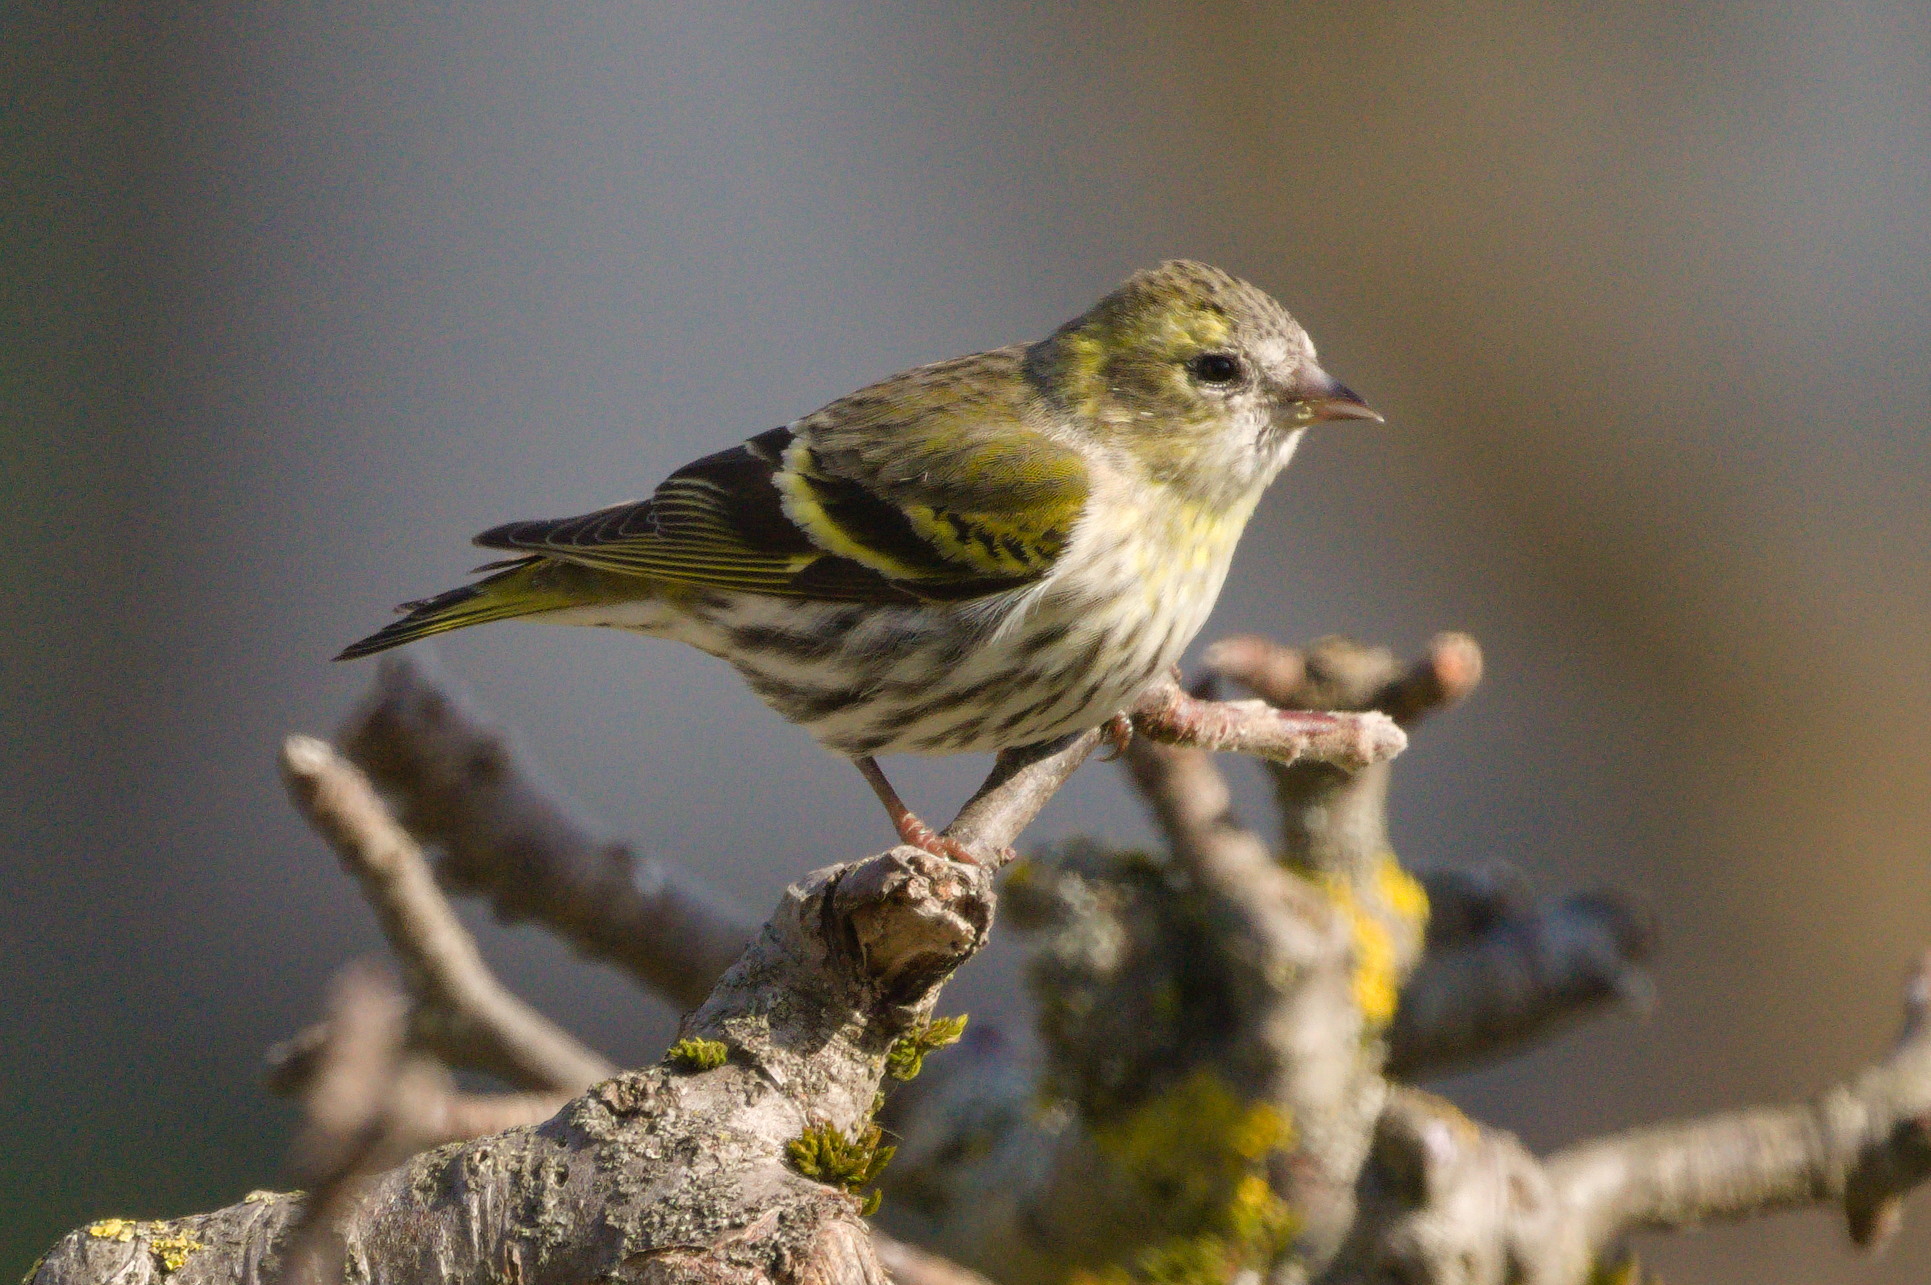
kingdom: Animalia
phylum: Chordata
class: Aves
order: Passeriformes
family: Fringillidae
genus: Spinus
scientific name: Spinus spinus
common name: Eurasian siskin
